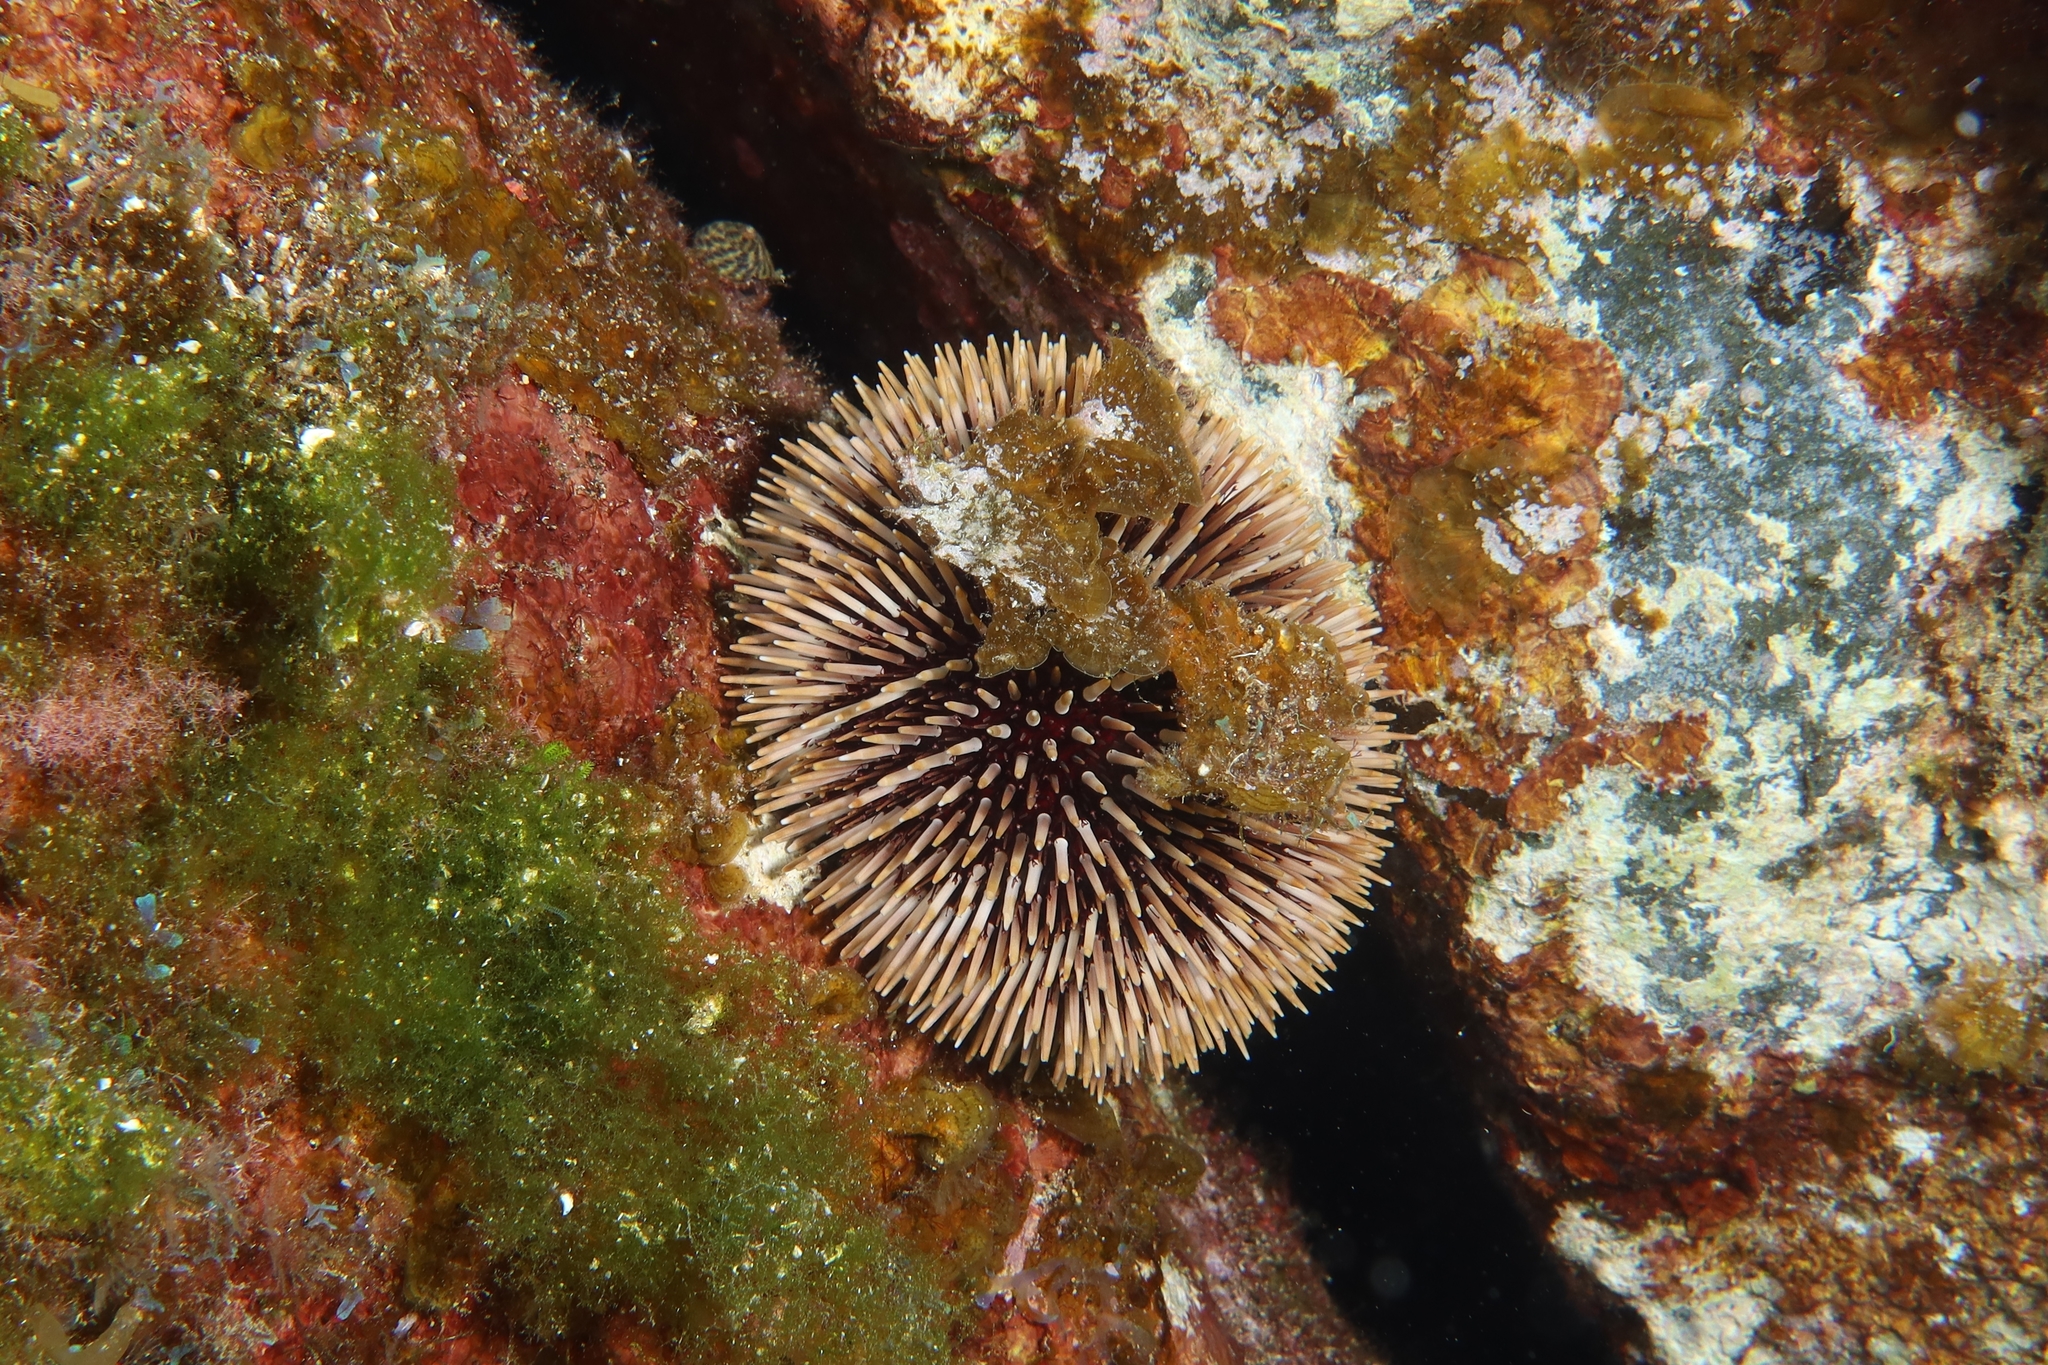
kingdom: Animalia
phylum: Echinodermata
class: Echinoidea
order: Camarodonta
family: Toxopneustidae
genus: Sphaerechinus
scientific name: Sphaerechinus granularis
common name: Violet sea urchin
